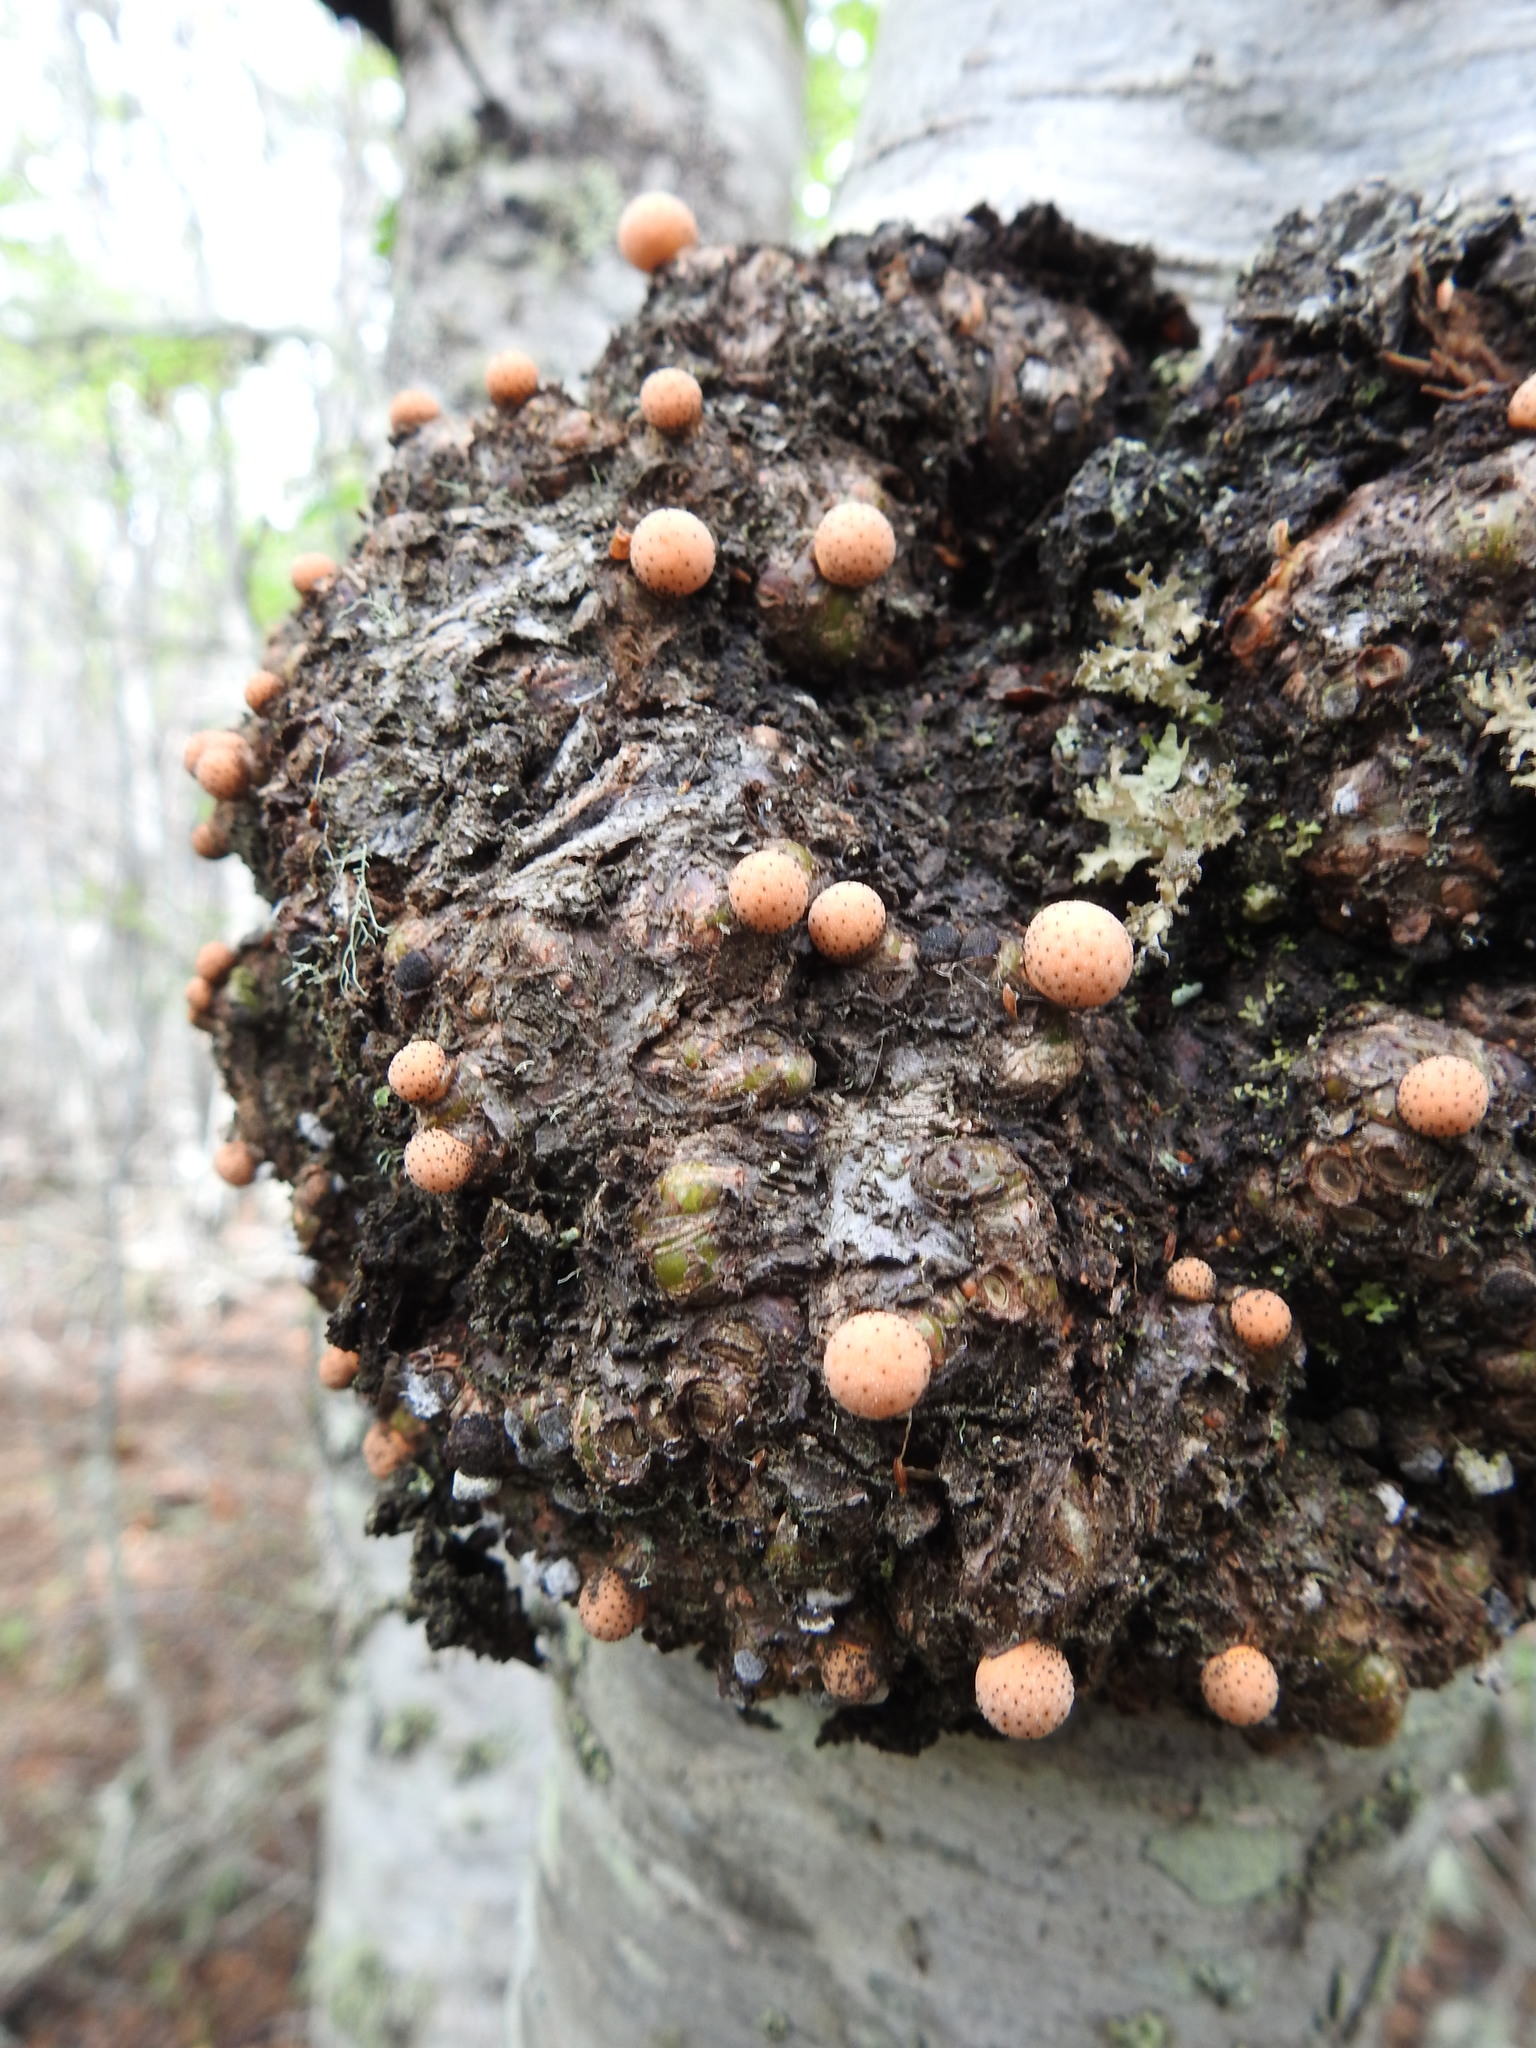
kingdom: Fungi
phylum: Ascomycota
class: Leotiomycetes
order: Cyttariales
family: Cyttariaceae
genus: Cyttaria
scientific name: Cyttaria hariotii
